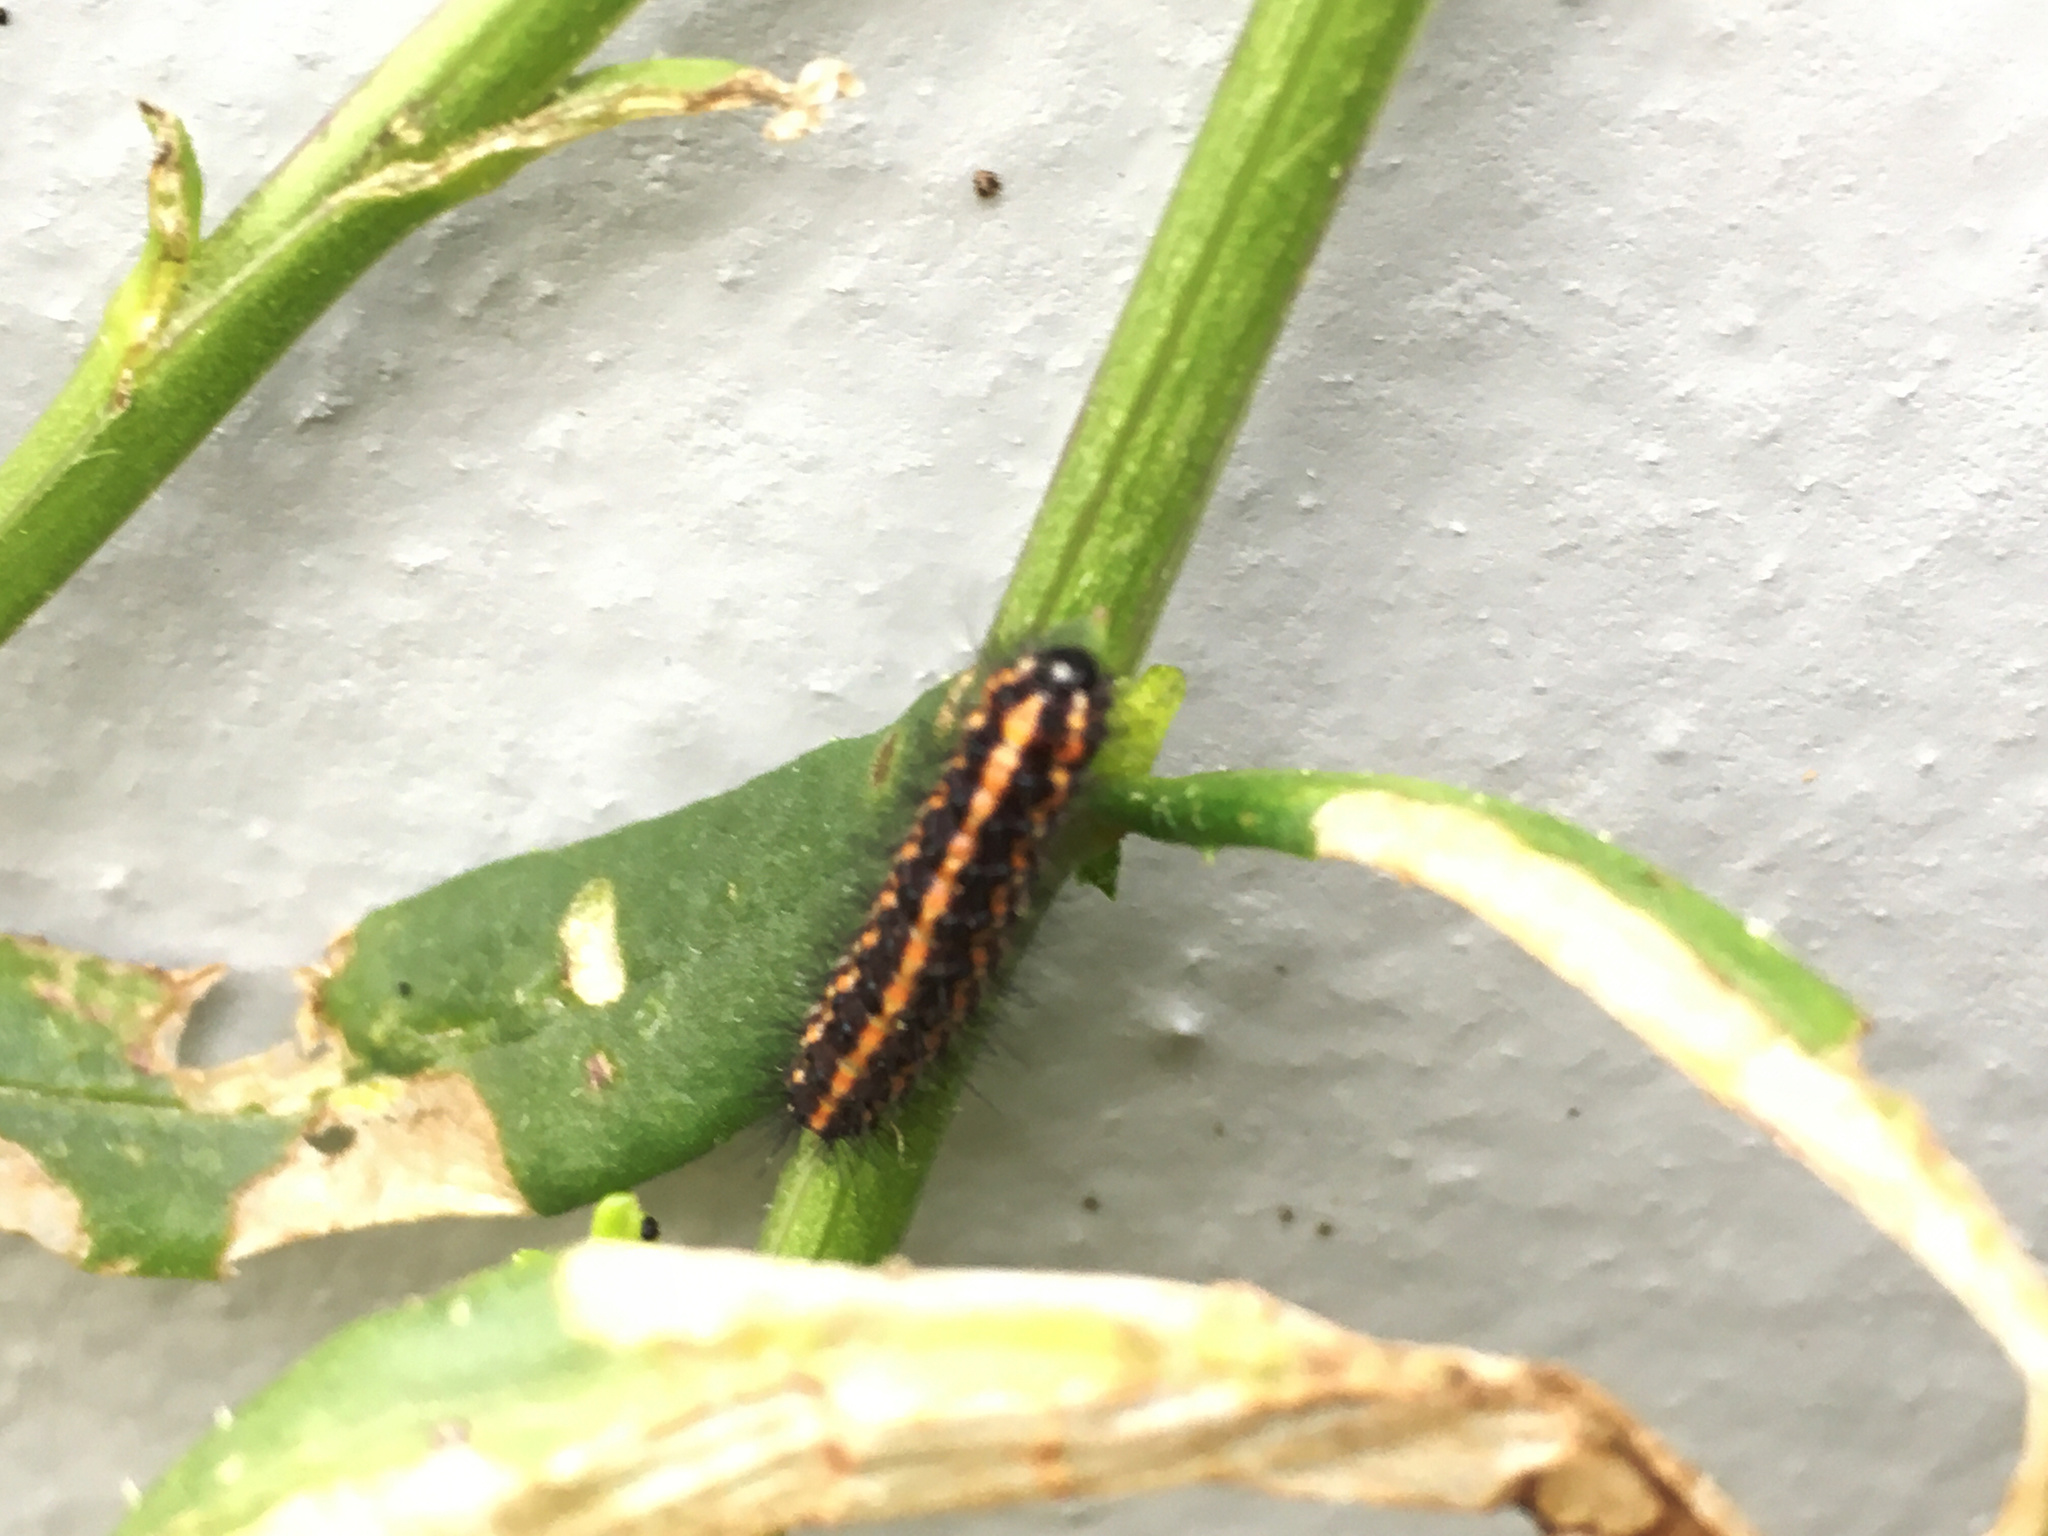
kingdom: Animalia
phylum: Arthropoda
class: Insecta
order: Lepidoptera
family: Erebidae
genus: Nyctemera
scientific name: Nyctemera annulatum
